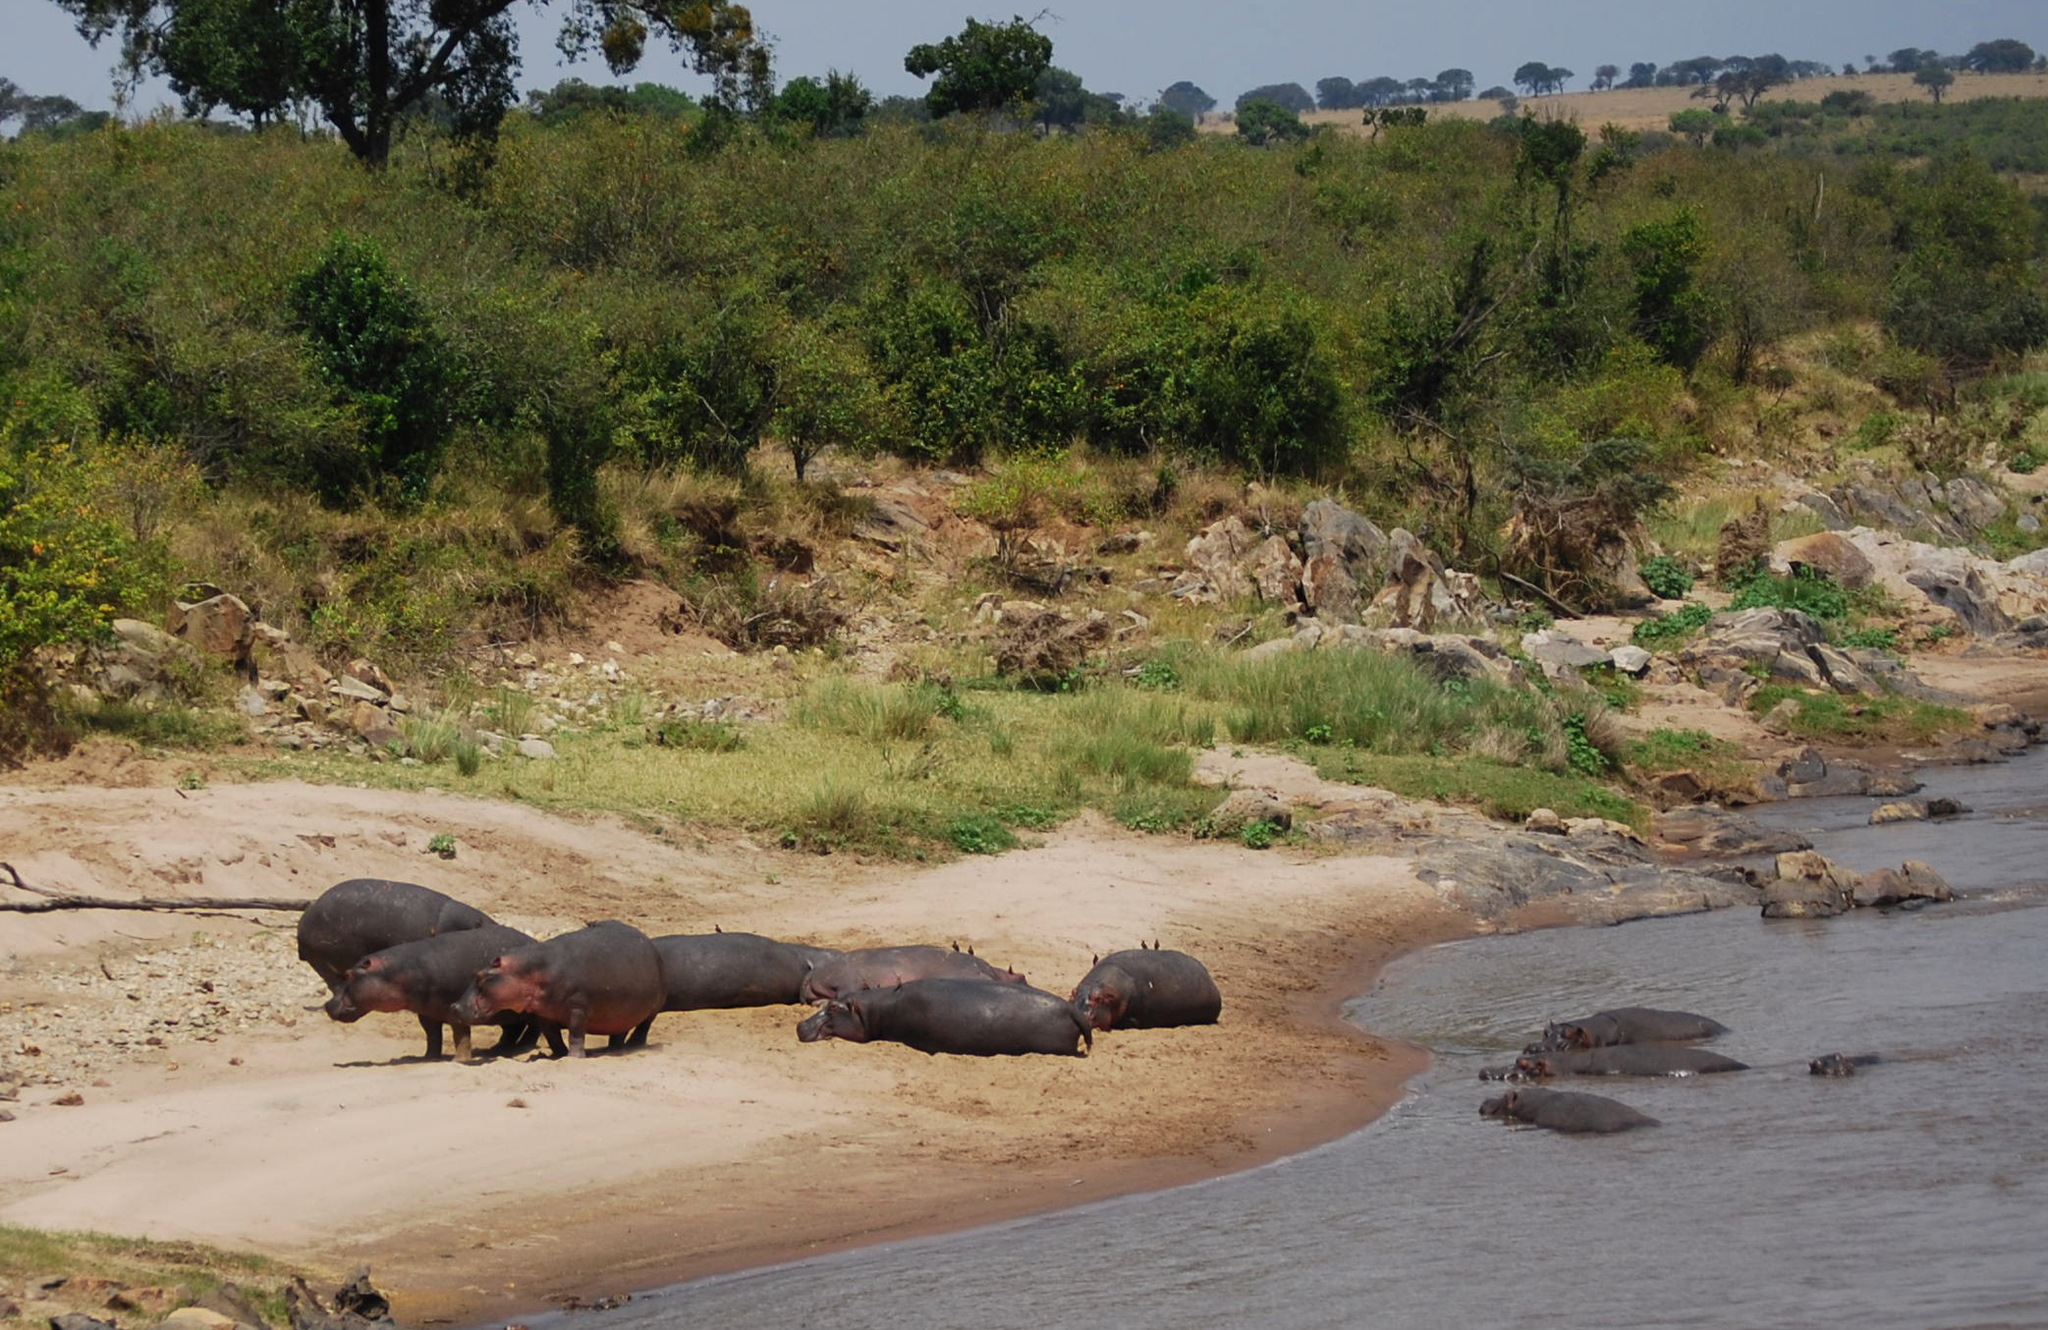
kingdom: Animalia
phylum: Chordata
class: Mammalia
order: Artiodactyla
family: Hippopotamidae
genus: Hippopotamus
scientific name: Hippopotamus amphibius
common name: Common hippopotamus
